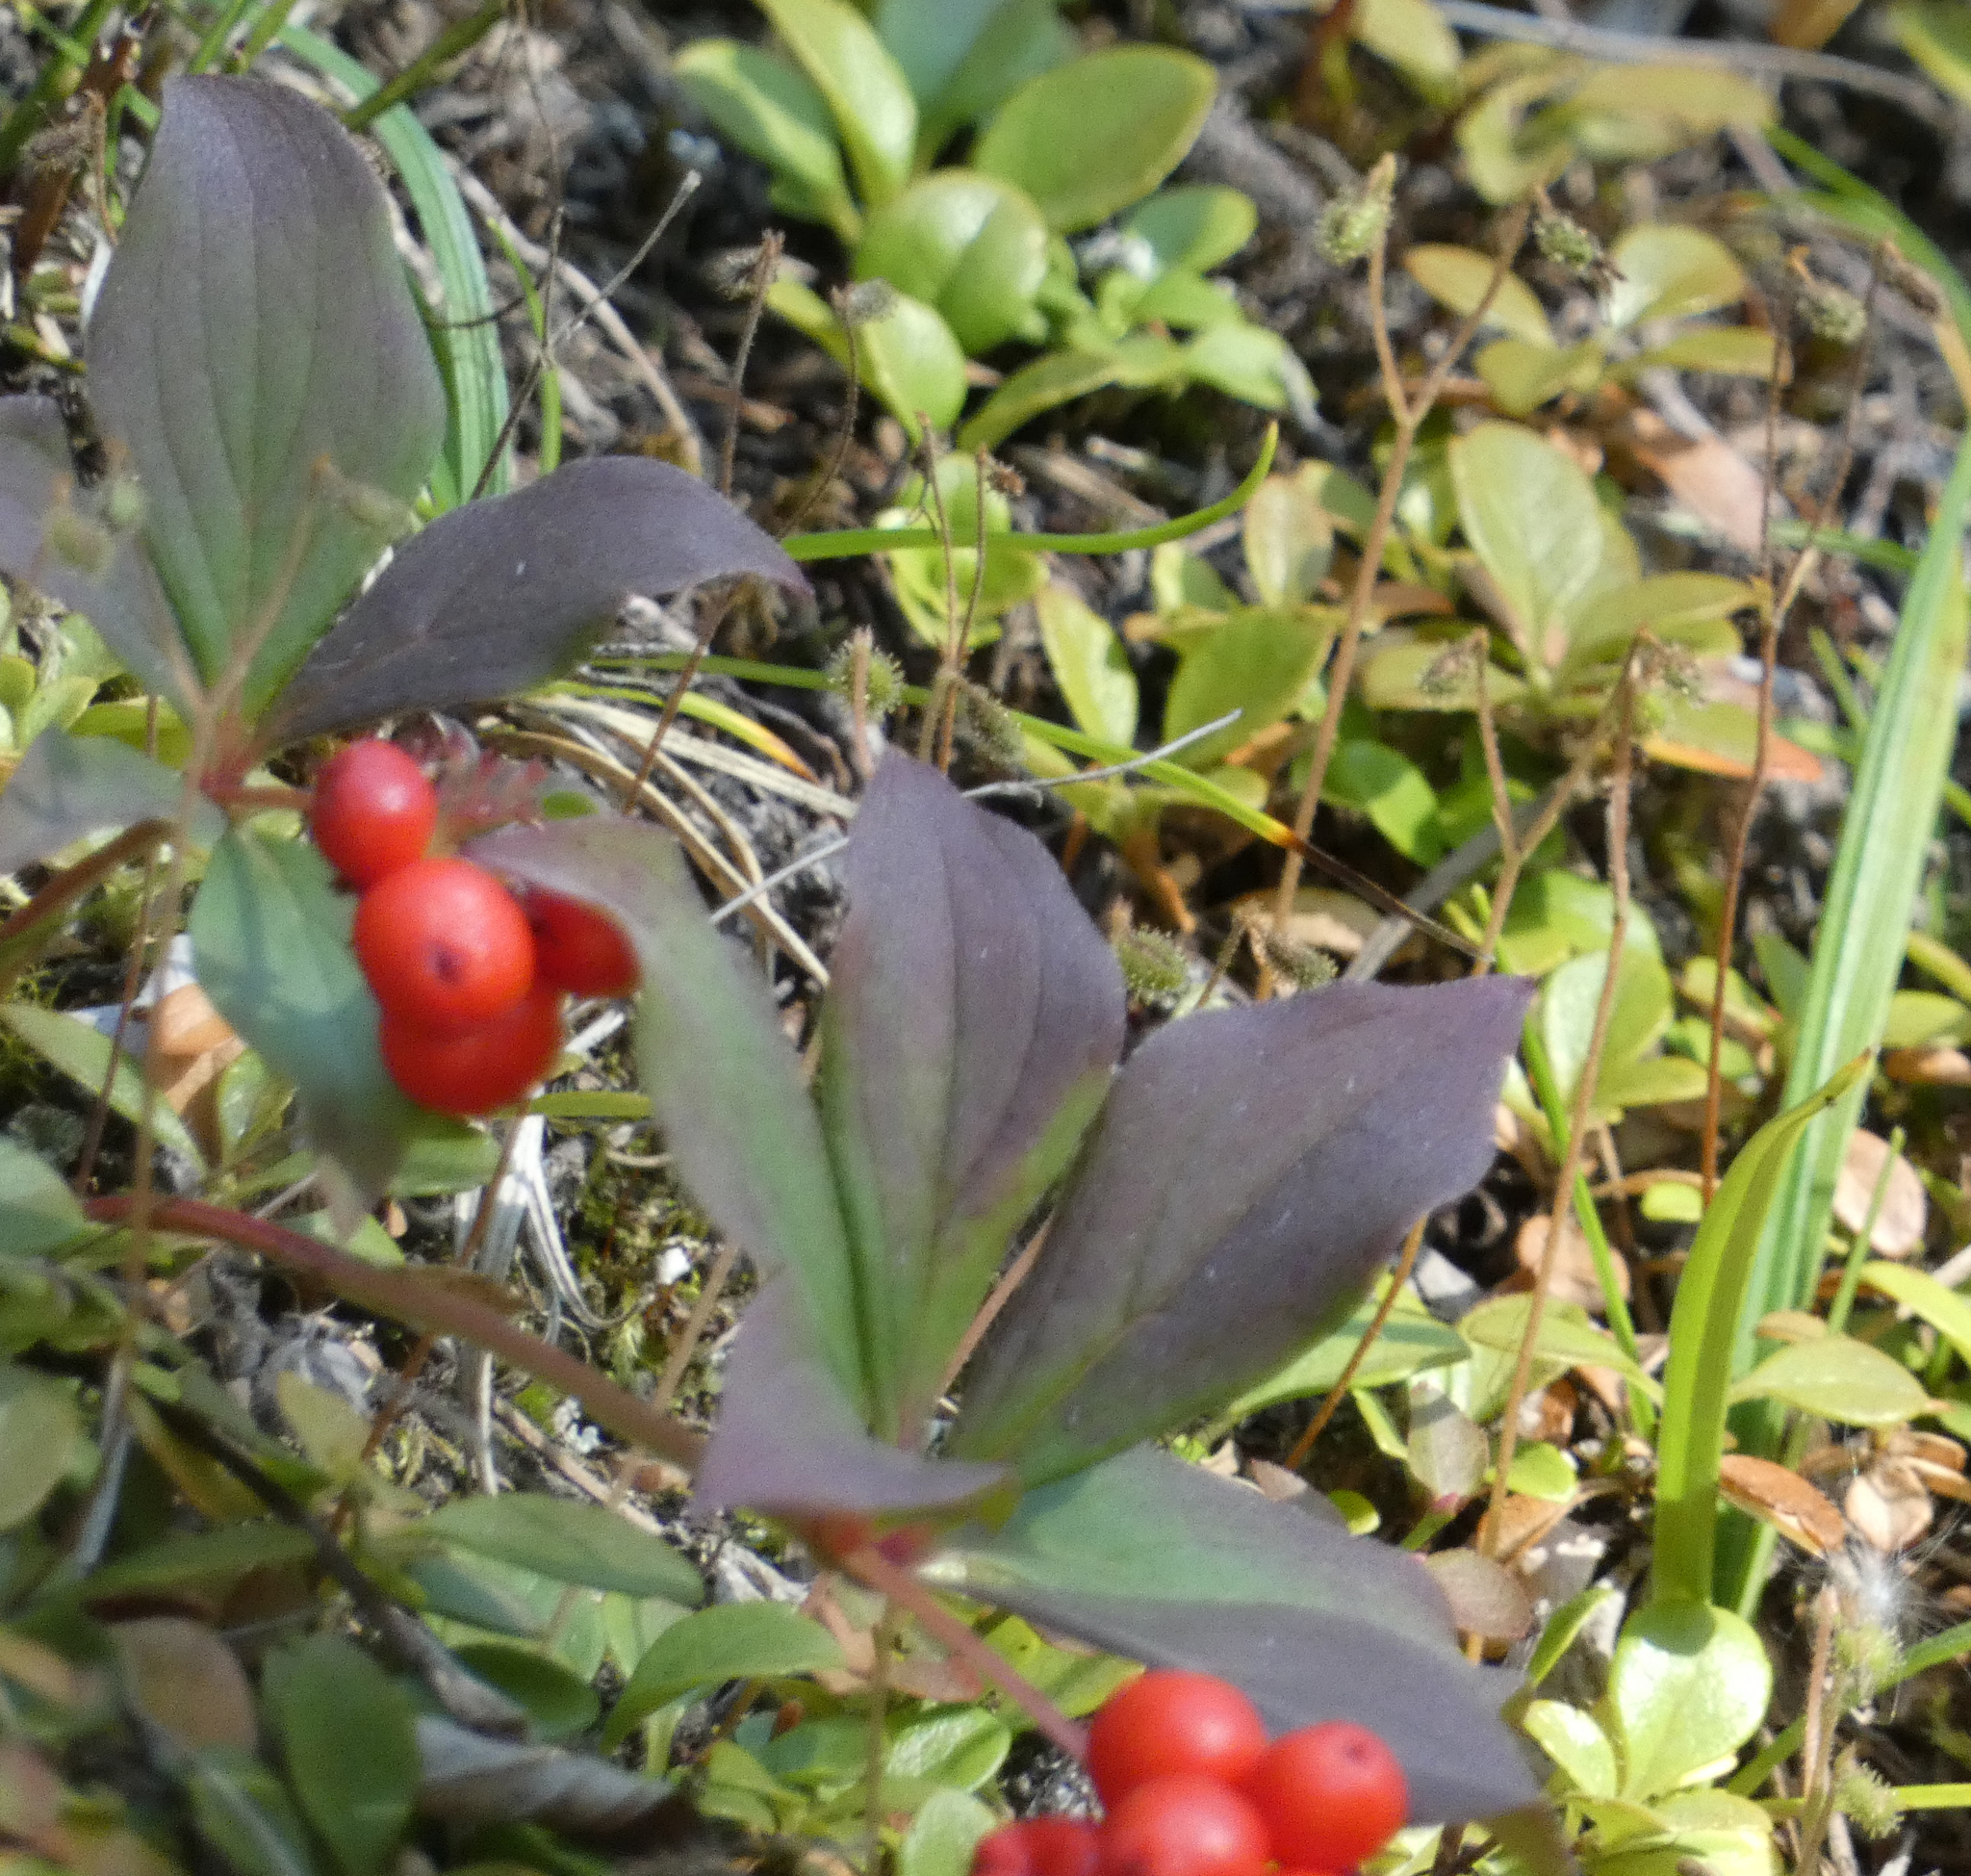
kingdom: Plantae
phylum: Tracheophyta
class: Magnoliopsida
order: Cornales
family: Cornaceae
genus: Cornus
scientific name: Cornus canadensis
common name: Creeping dogwood
